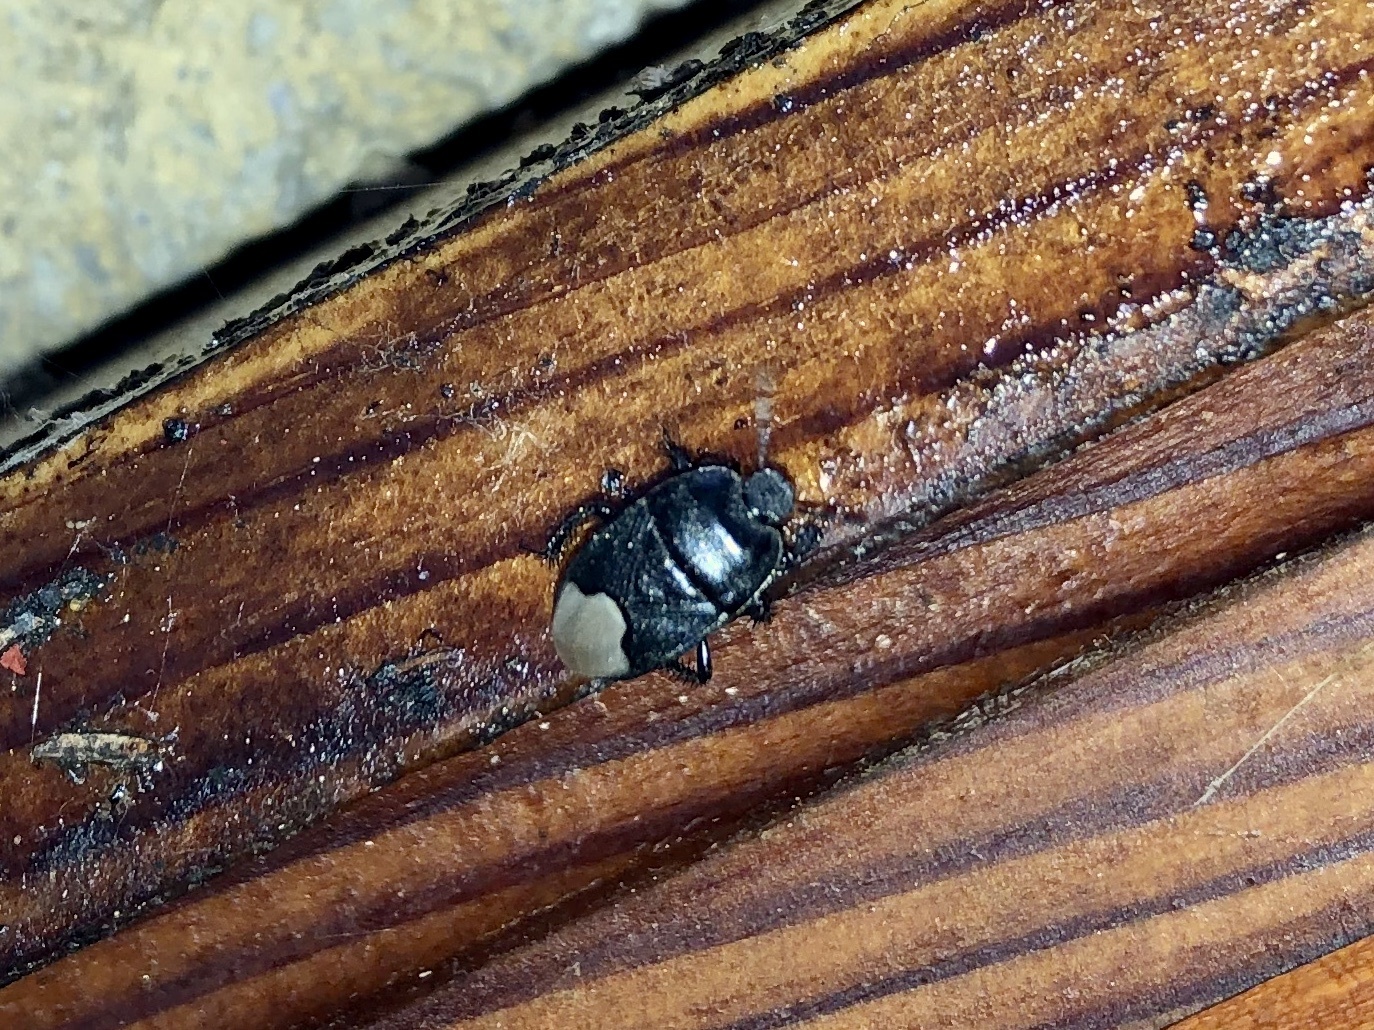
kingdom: Animalia
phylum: Arthropoda
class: Insecta
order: Hemiptera
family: Cydnidae
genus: Cydnus
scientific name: Cydnus aterrimus
